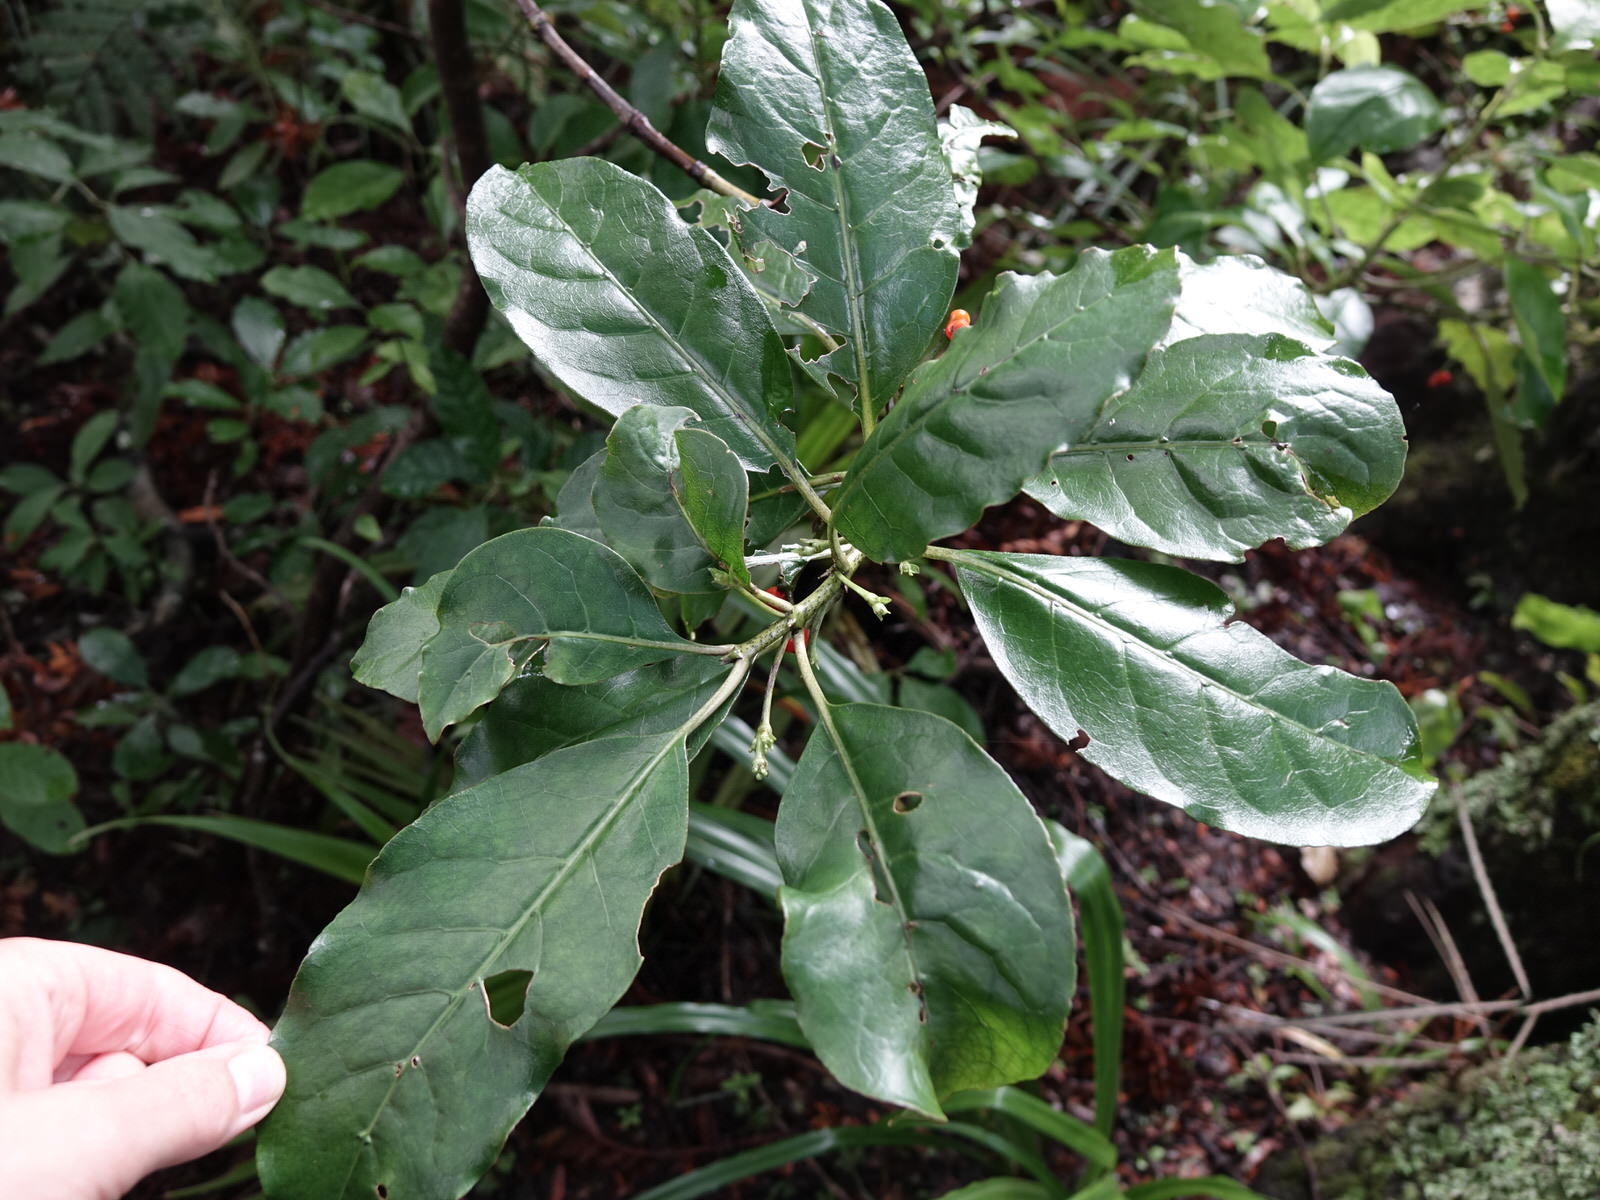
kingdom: Plantae
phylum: Tracheophyta
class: Magnoliopsida
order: Gentianales
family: Rubiaceae
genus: Coprosma
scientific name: Coprosma autumnalis
